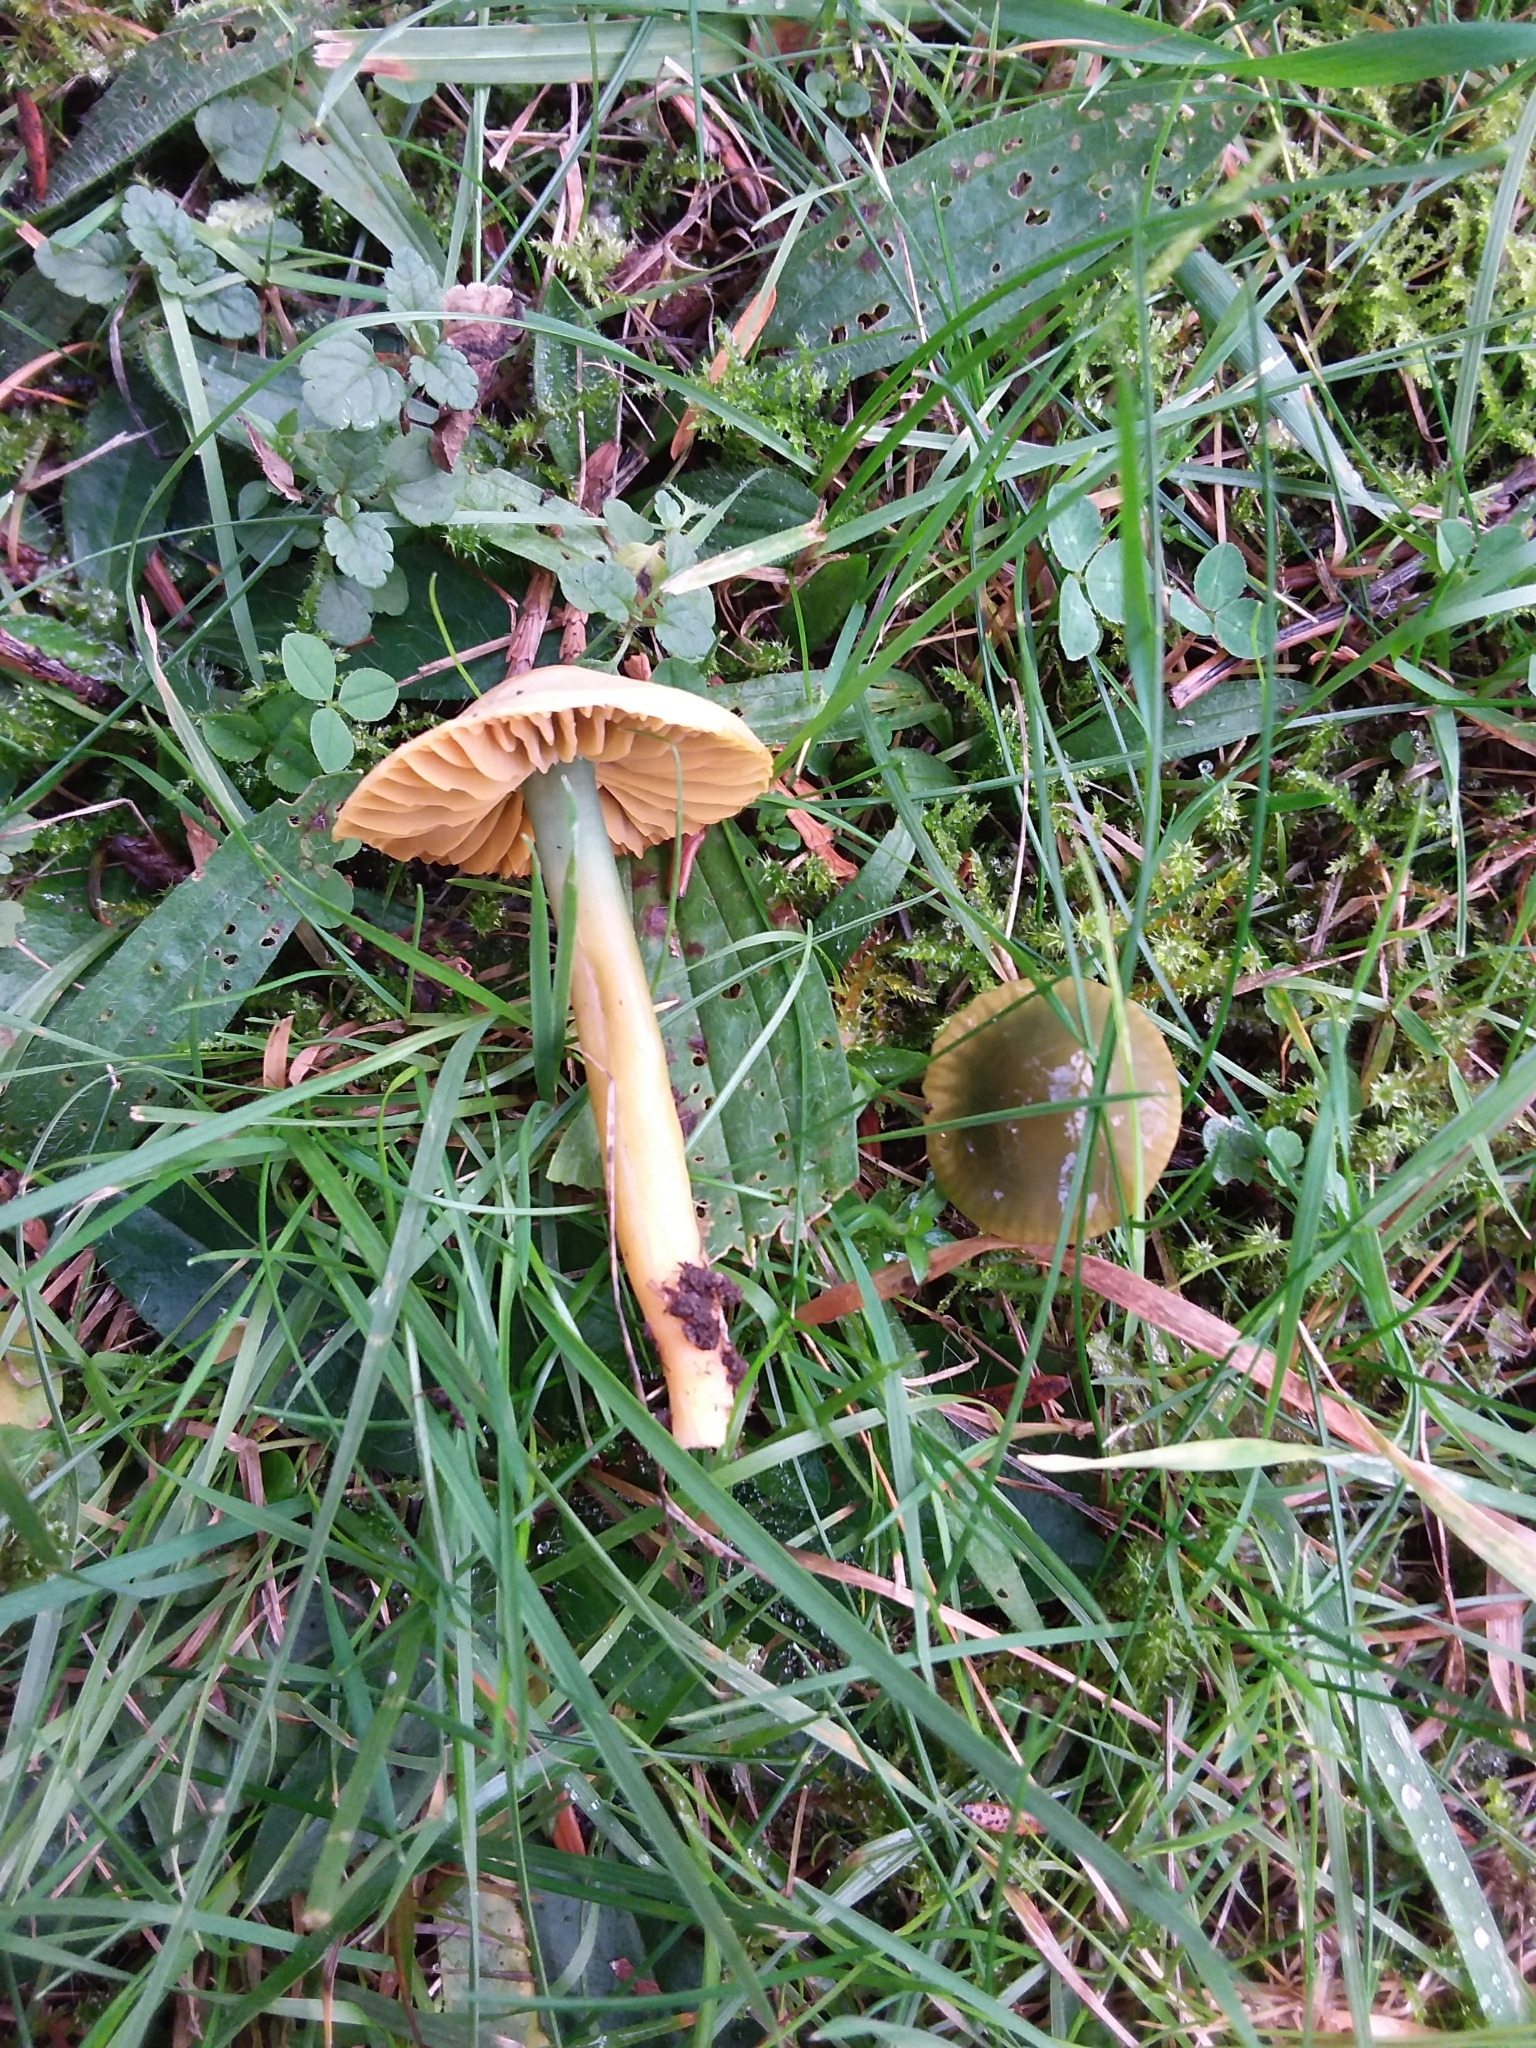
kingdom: Fungi
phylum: Basidiomycota
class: Agaricomycetes
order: Agaricales
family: Hygrophoraceae
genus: Gliophorus
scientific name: Gliophorus psittacinus
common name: Parrot wax-cap
